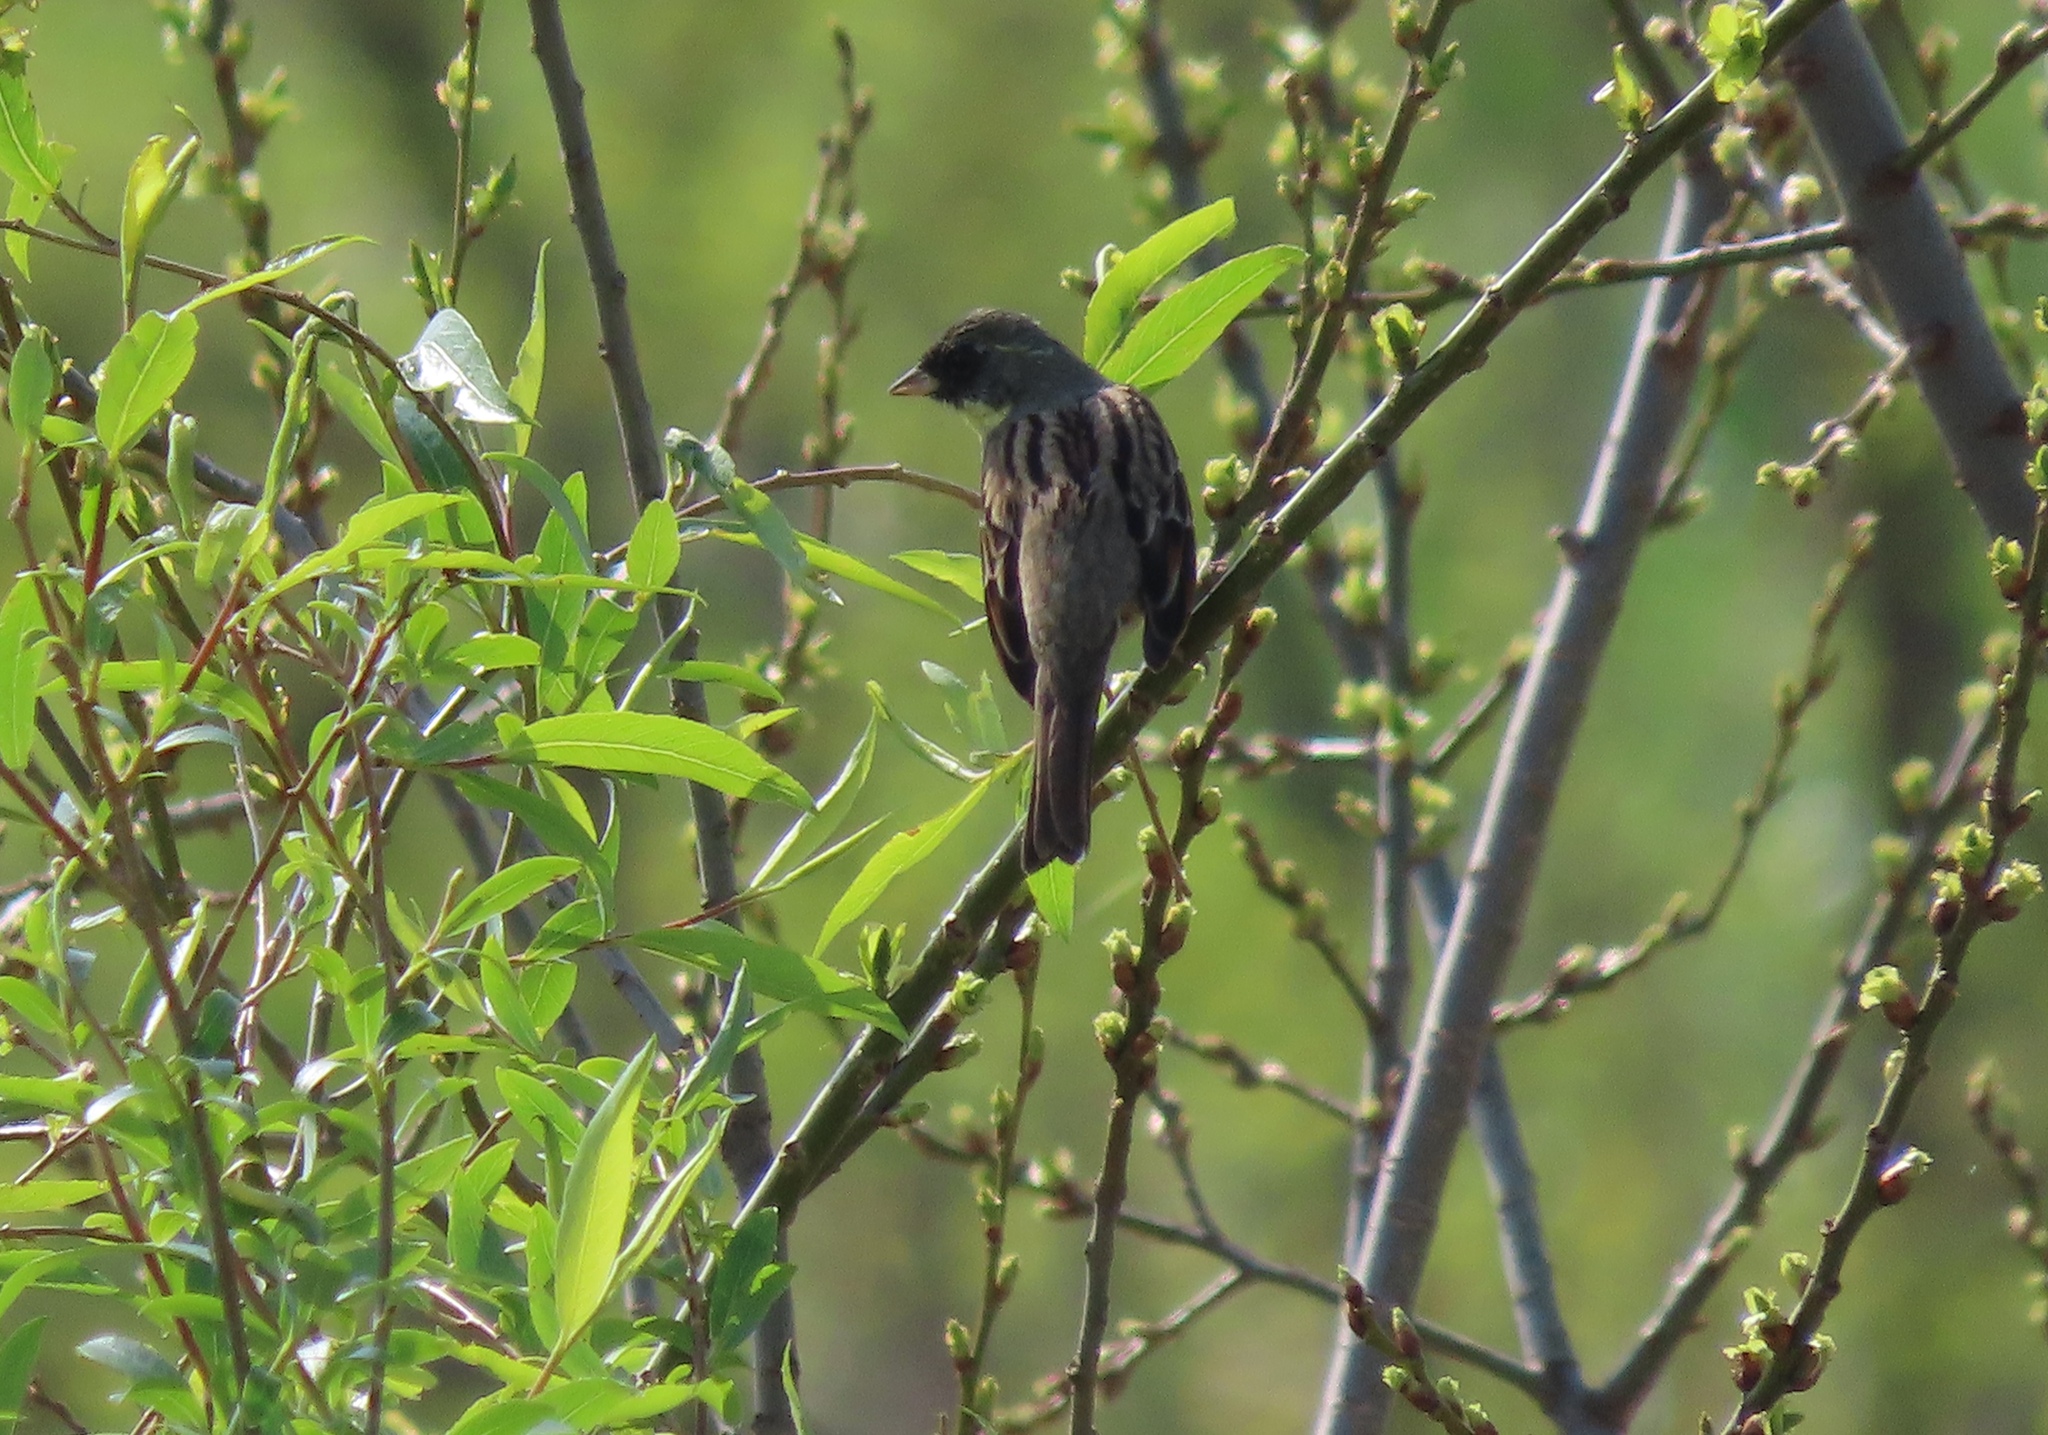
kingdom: Animalia
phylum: Chordata
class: Aves
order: Passeriformes
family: Emberizidae
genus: Emberiza
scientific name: Emberiza personata
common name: Masked bunting
